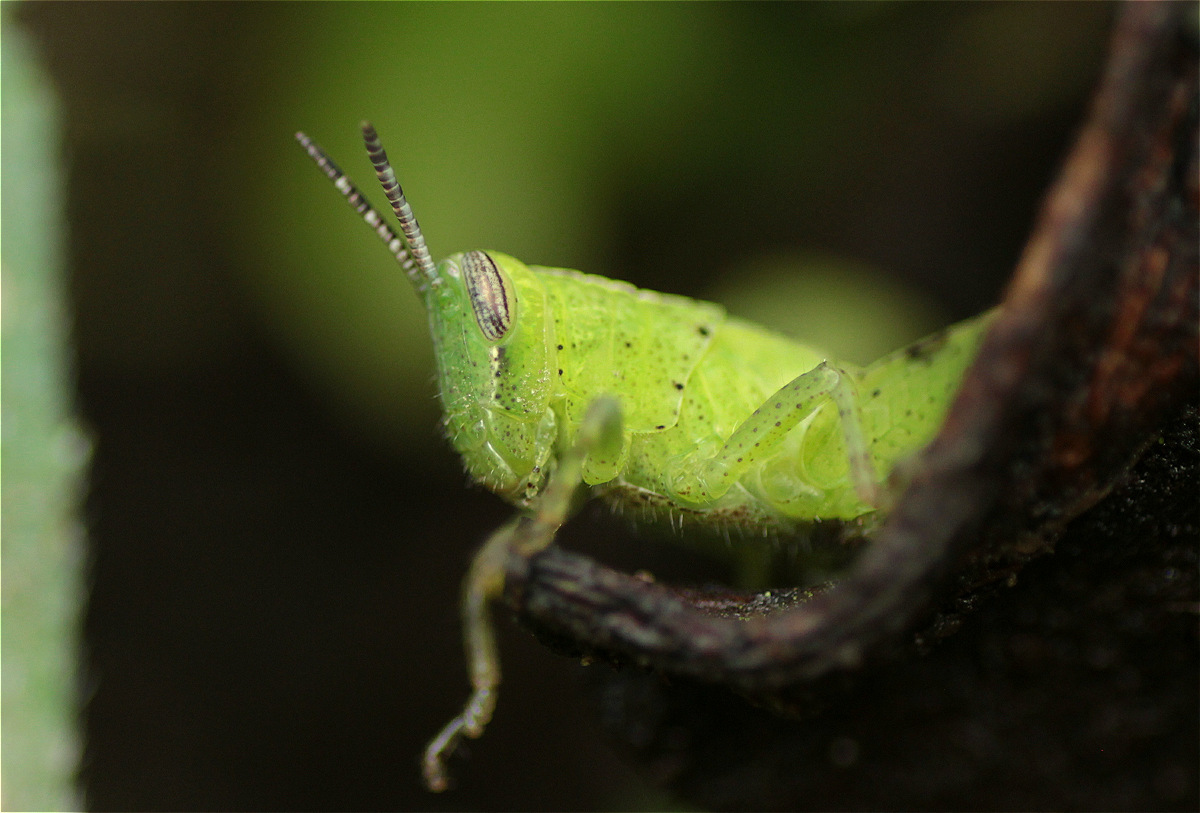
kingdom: Animalia
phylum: Arthropoda
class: Insecta
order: Orthoptera
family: Acrididae
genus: Abracris
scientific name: Abracris flavolineata
